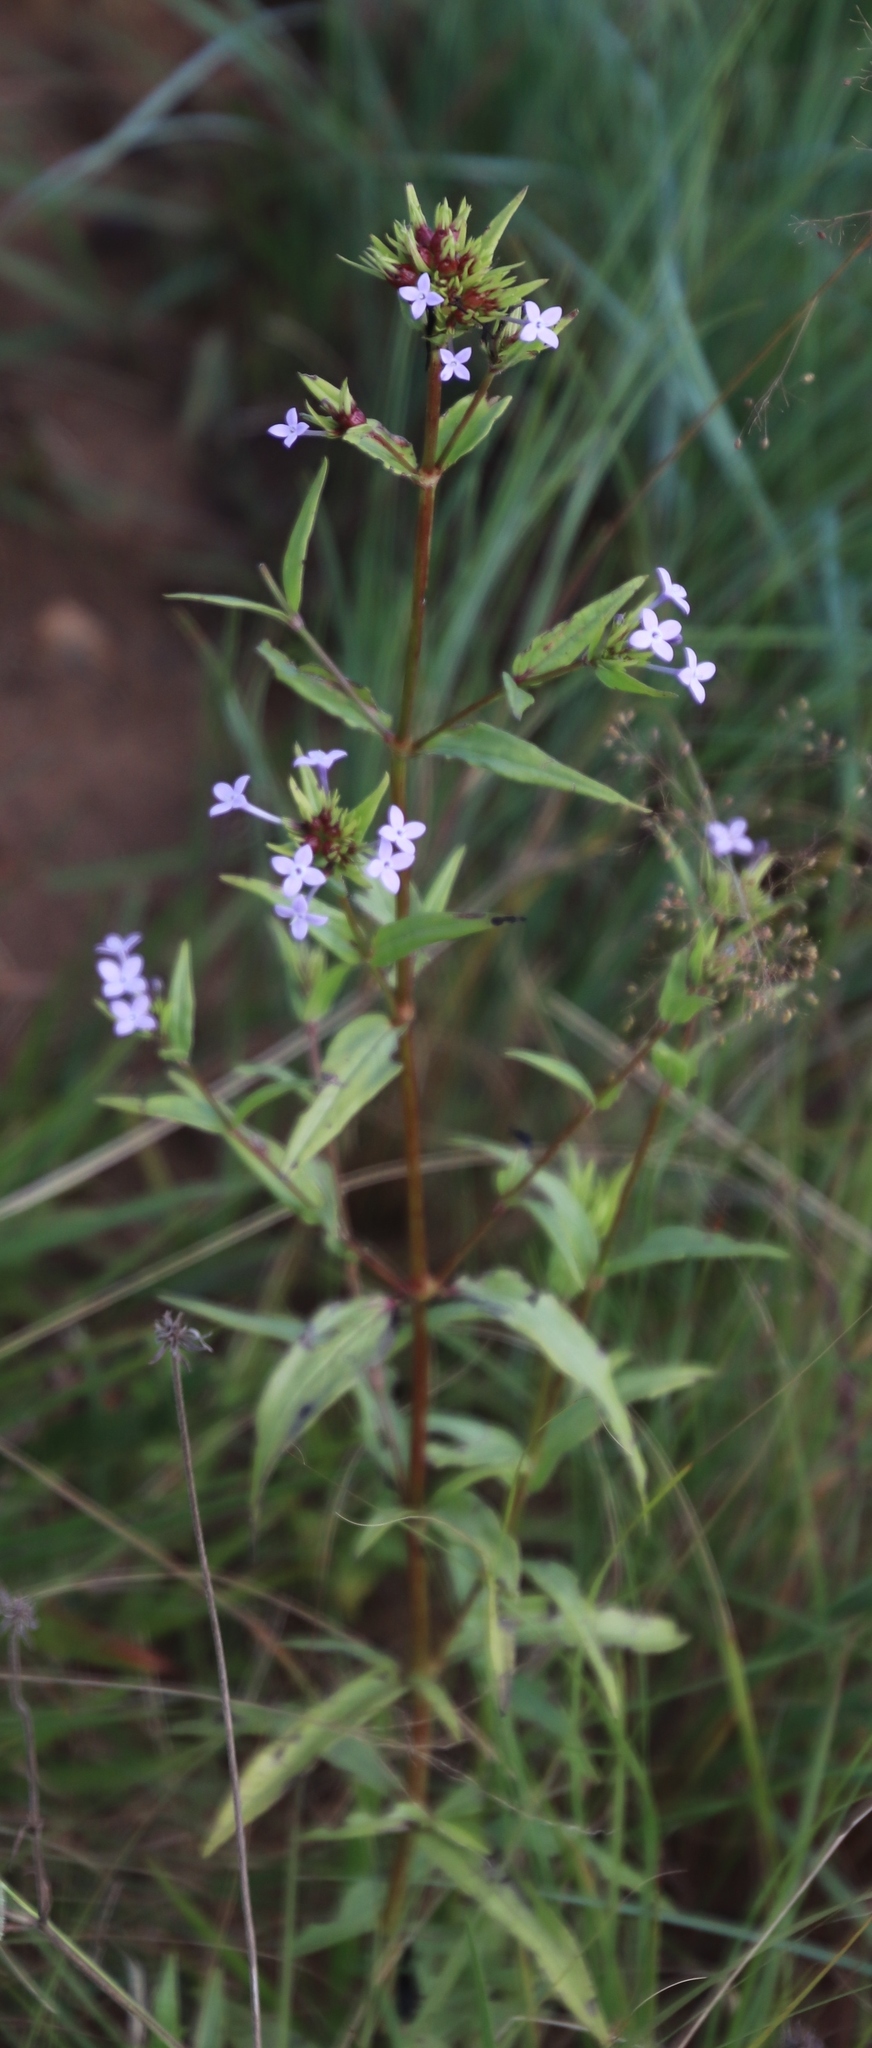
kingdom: Plantae
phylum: Tracheophyta
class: Magnoliopsida
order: Gentianales
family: Rubiaceae
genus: Conostomium
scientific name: Conostomium natalense
